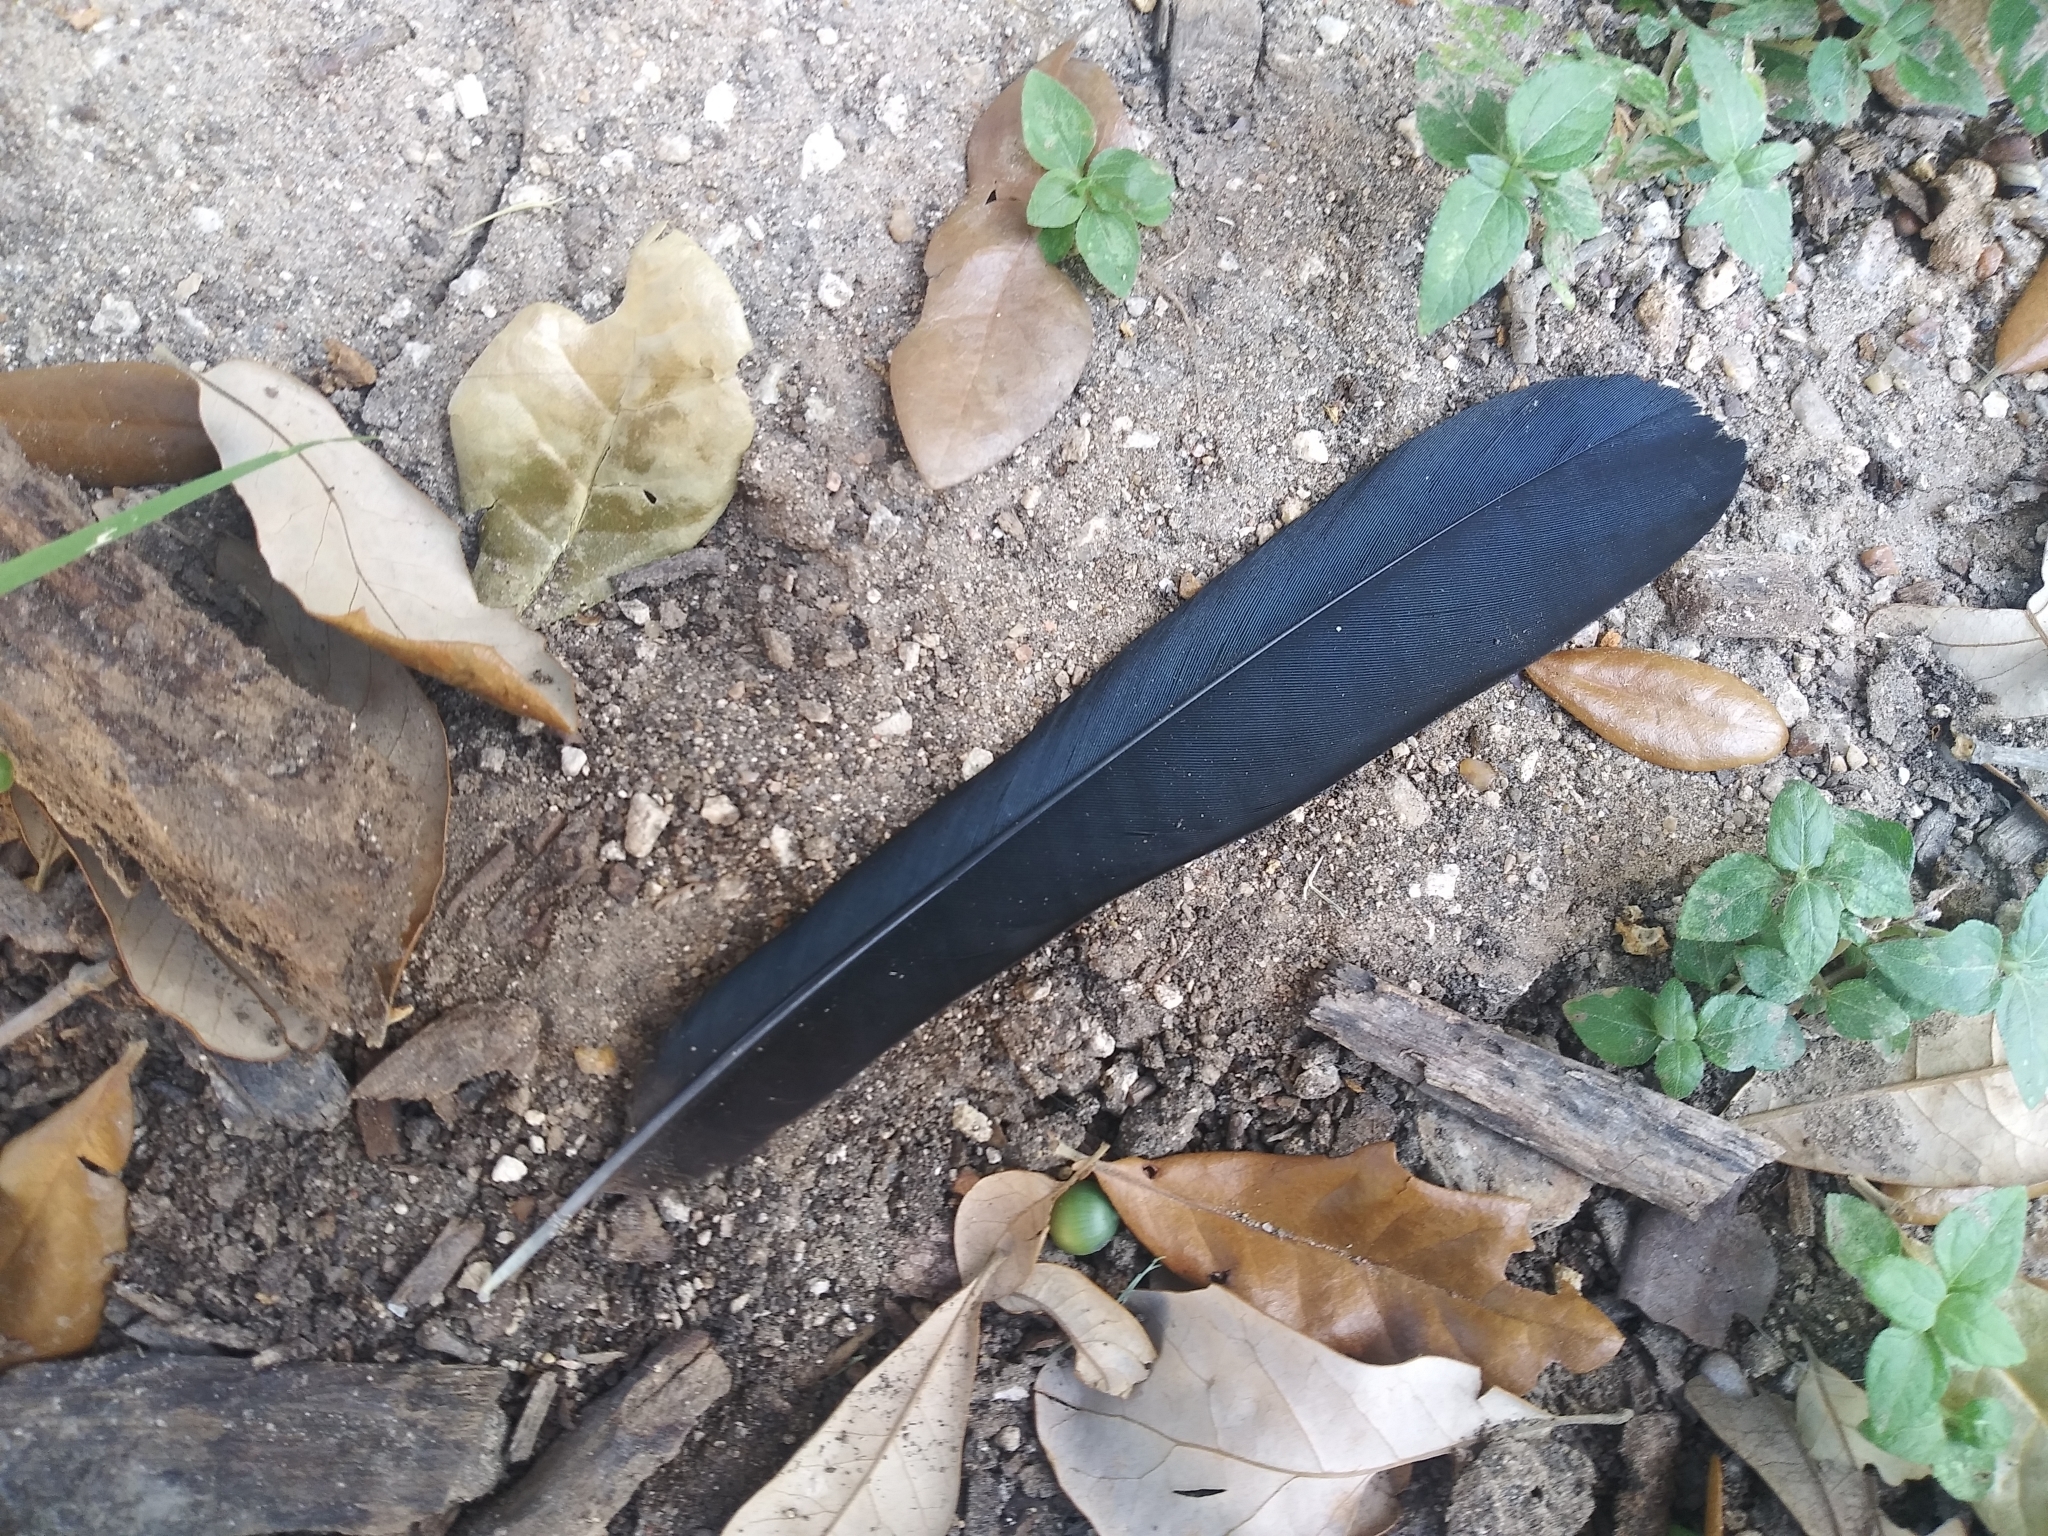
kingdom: Animalia
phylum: Chordata
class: Aves
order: Passeriformes
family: Icteridae
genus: Quiscalus
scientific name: Quiscalus mexicanus
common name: Great-tailed grackle
